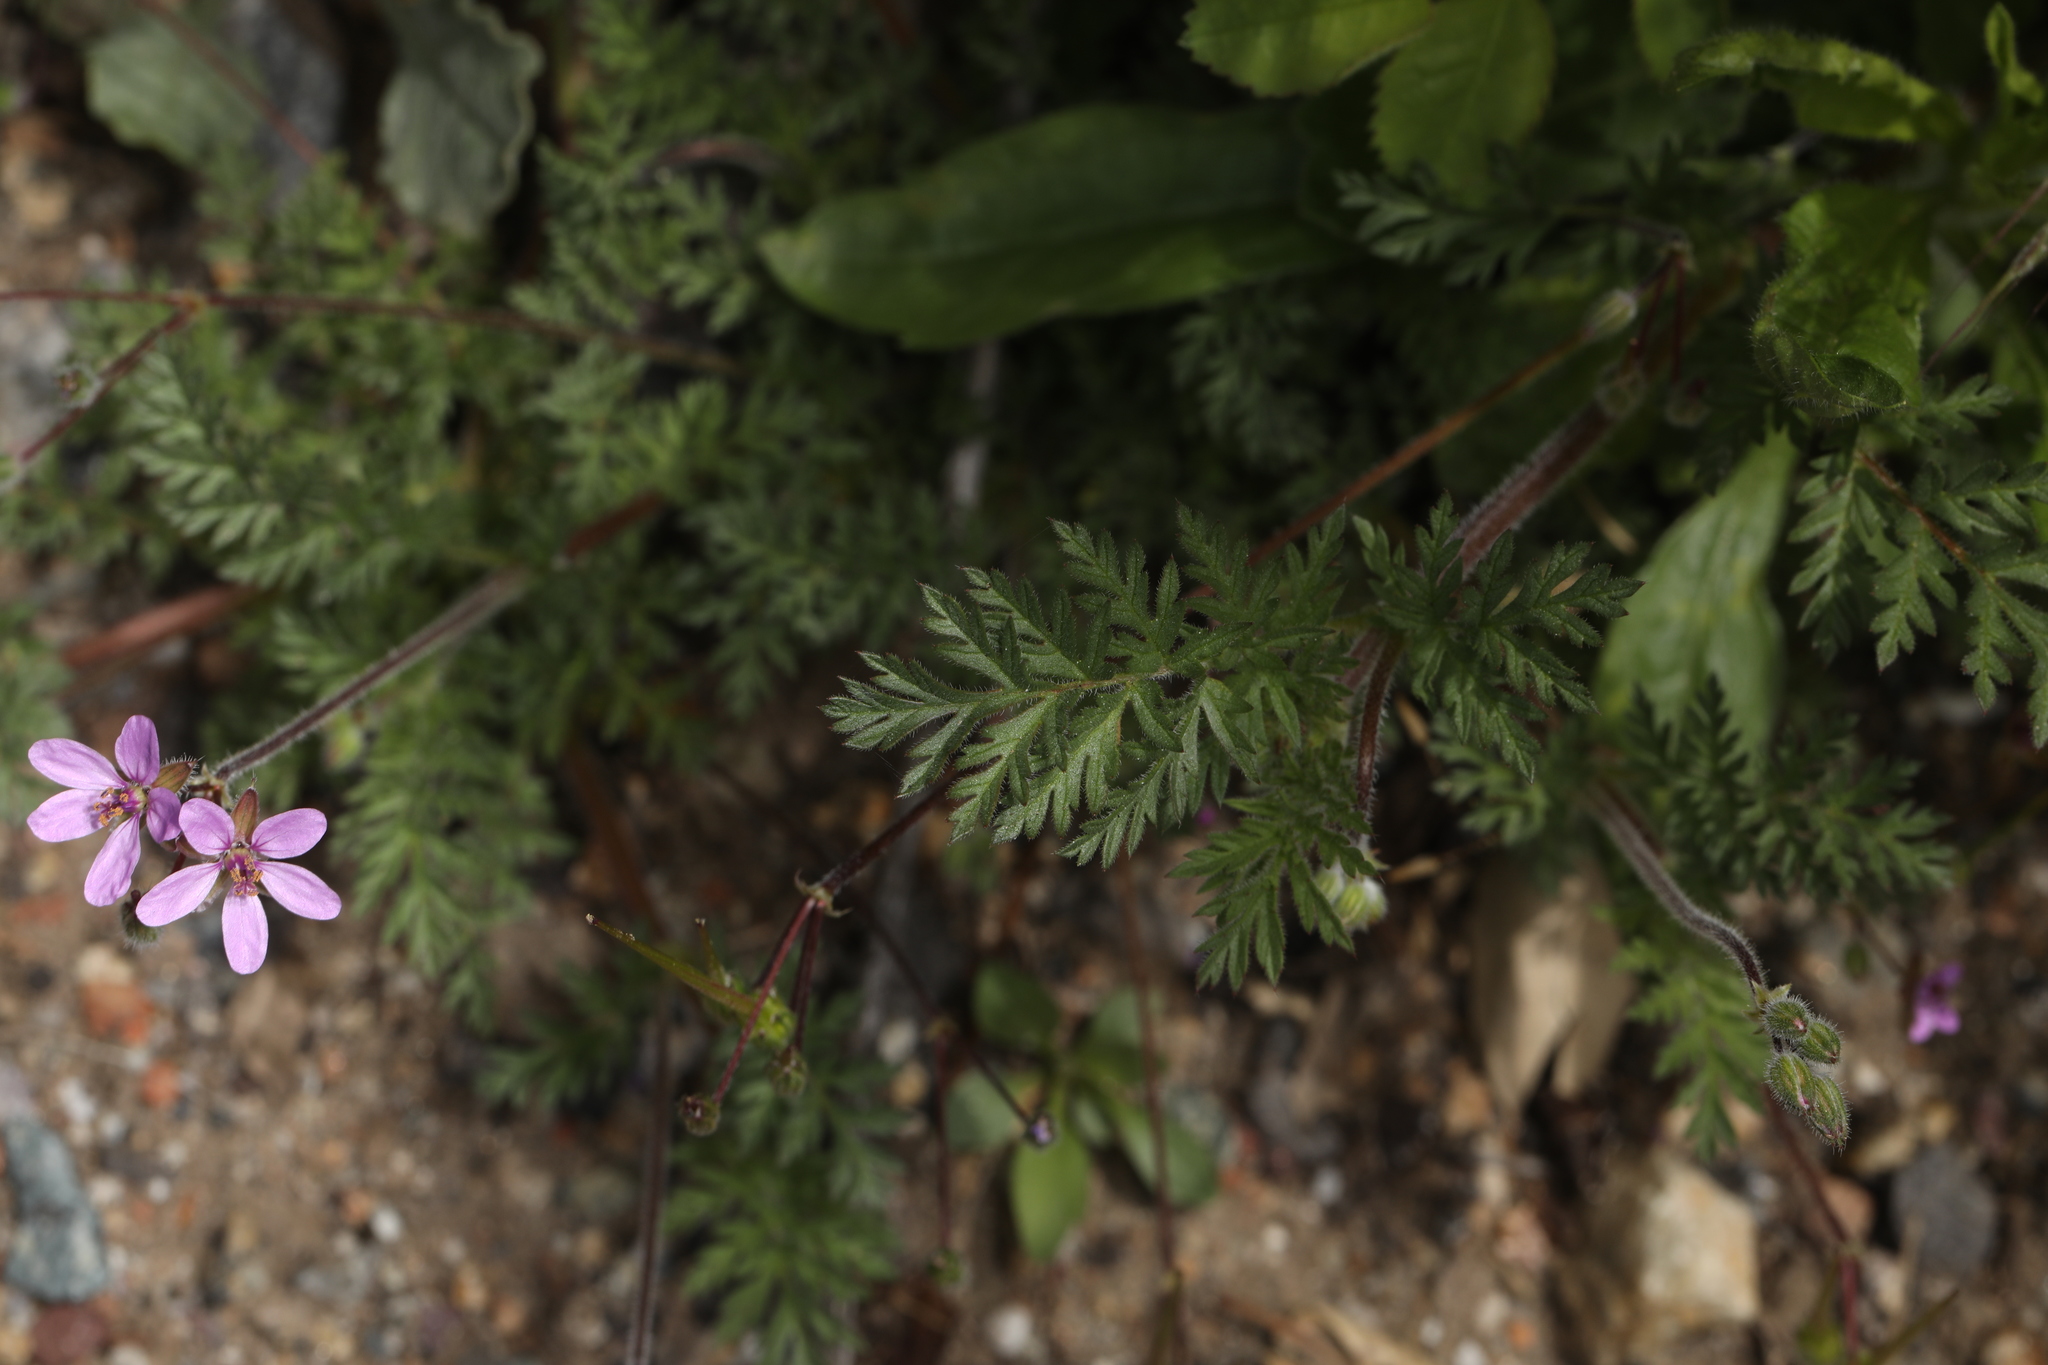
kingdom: Plantae
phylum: Tracheophyta
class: Magnoliopsida
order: Geraniales
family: Geraniaceae
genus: Erodium
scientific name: Erodium cicutarium
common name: Common stork's-bill
